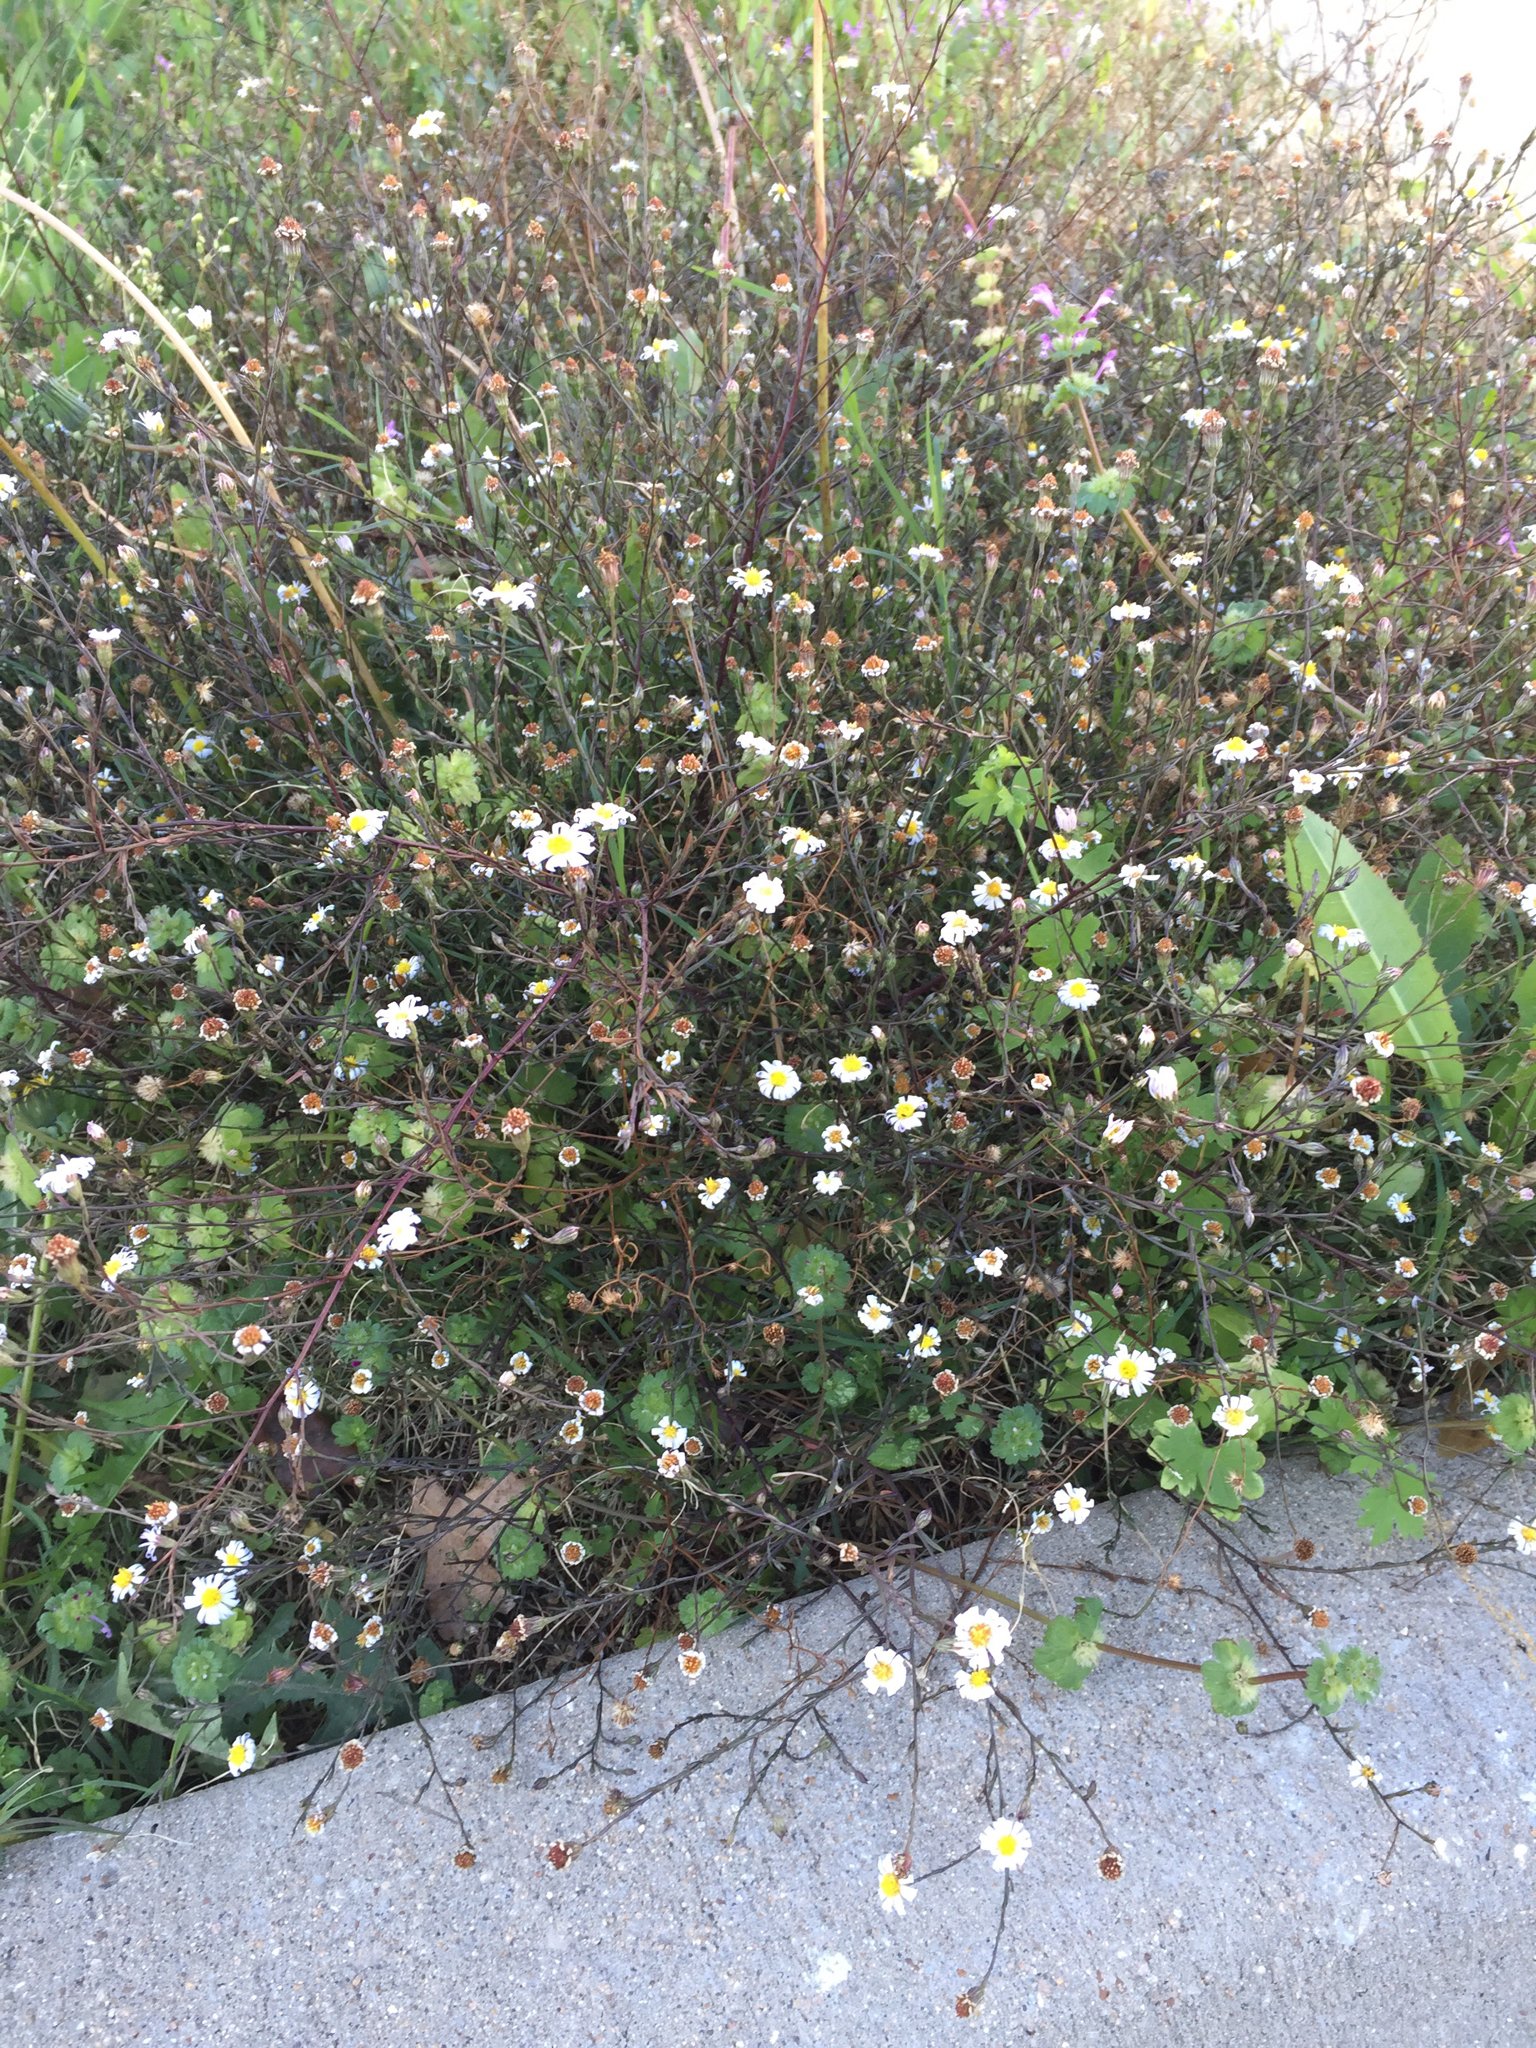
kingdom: Plantae
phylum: Tracheophyta
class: Magnoliopsida
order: Asterales
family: Asteraceae
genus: Symphyotrichum
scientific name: Symphyotrichum divaricatum
